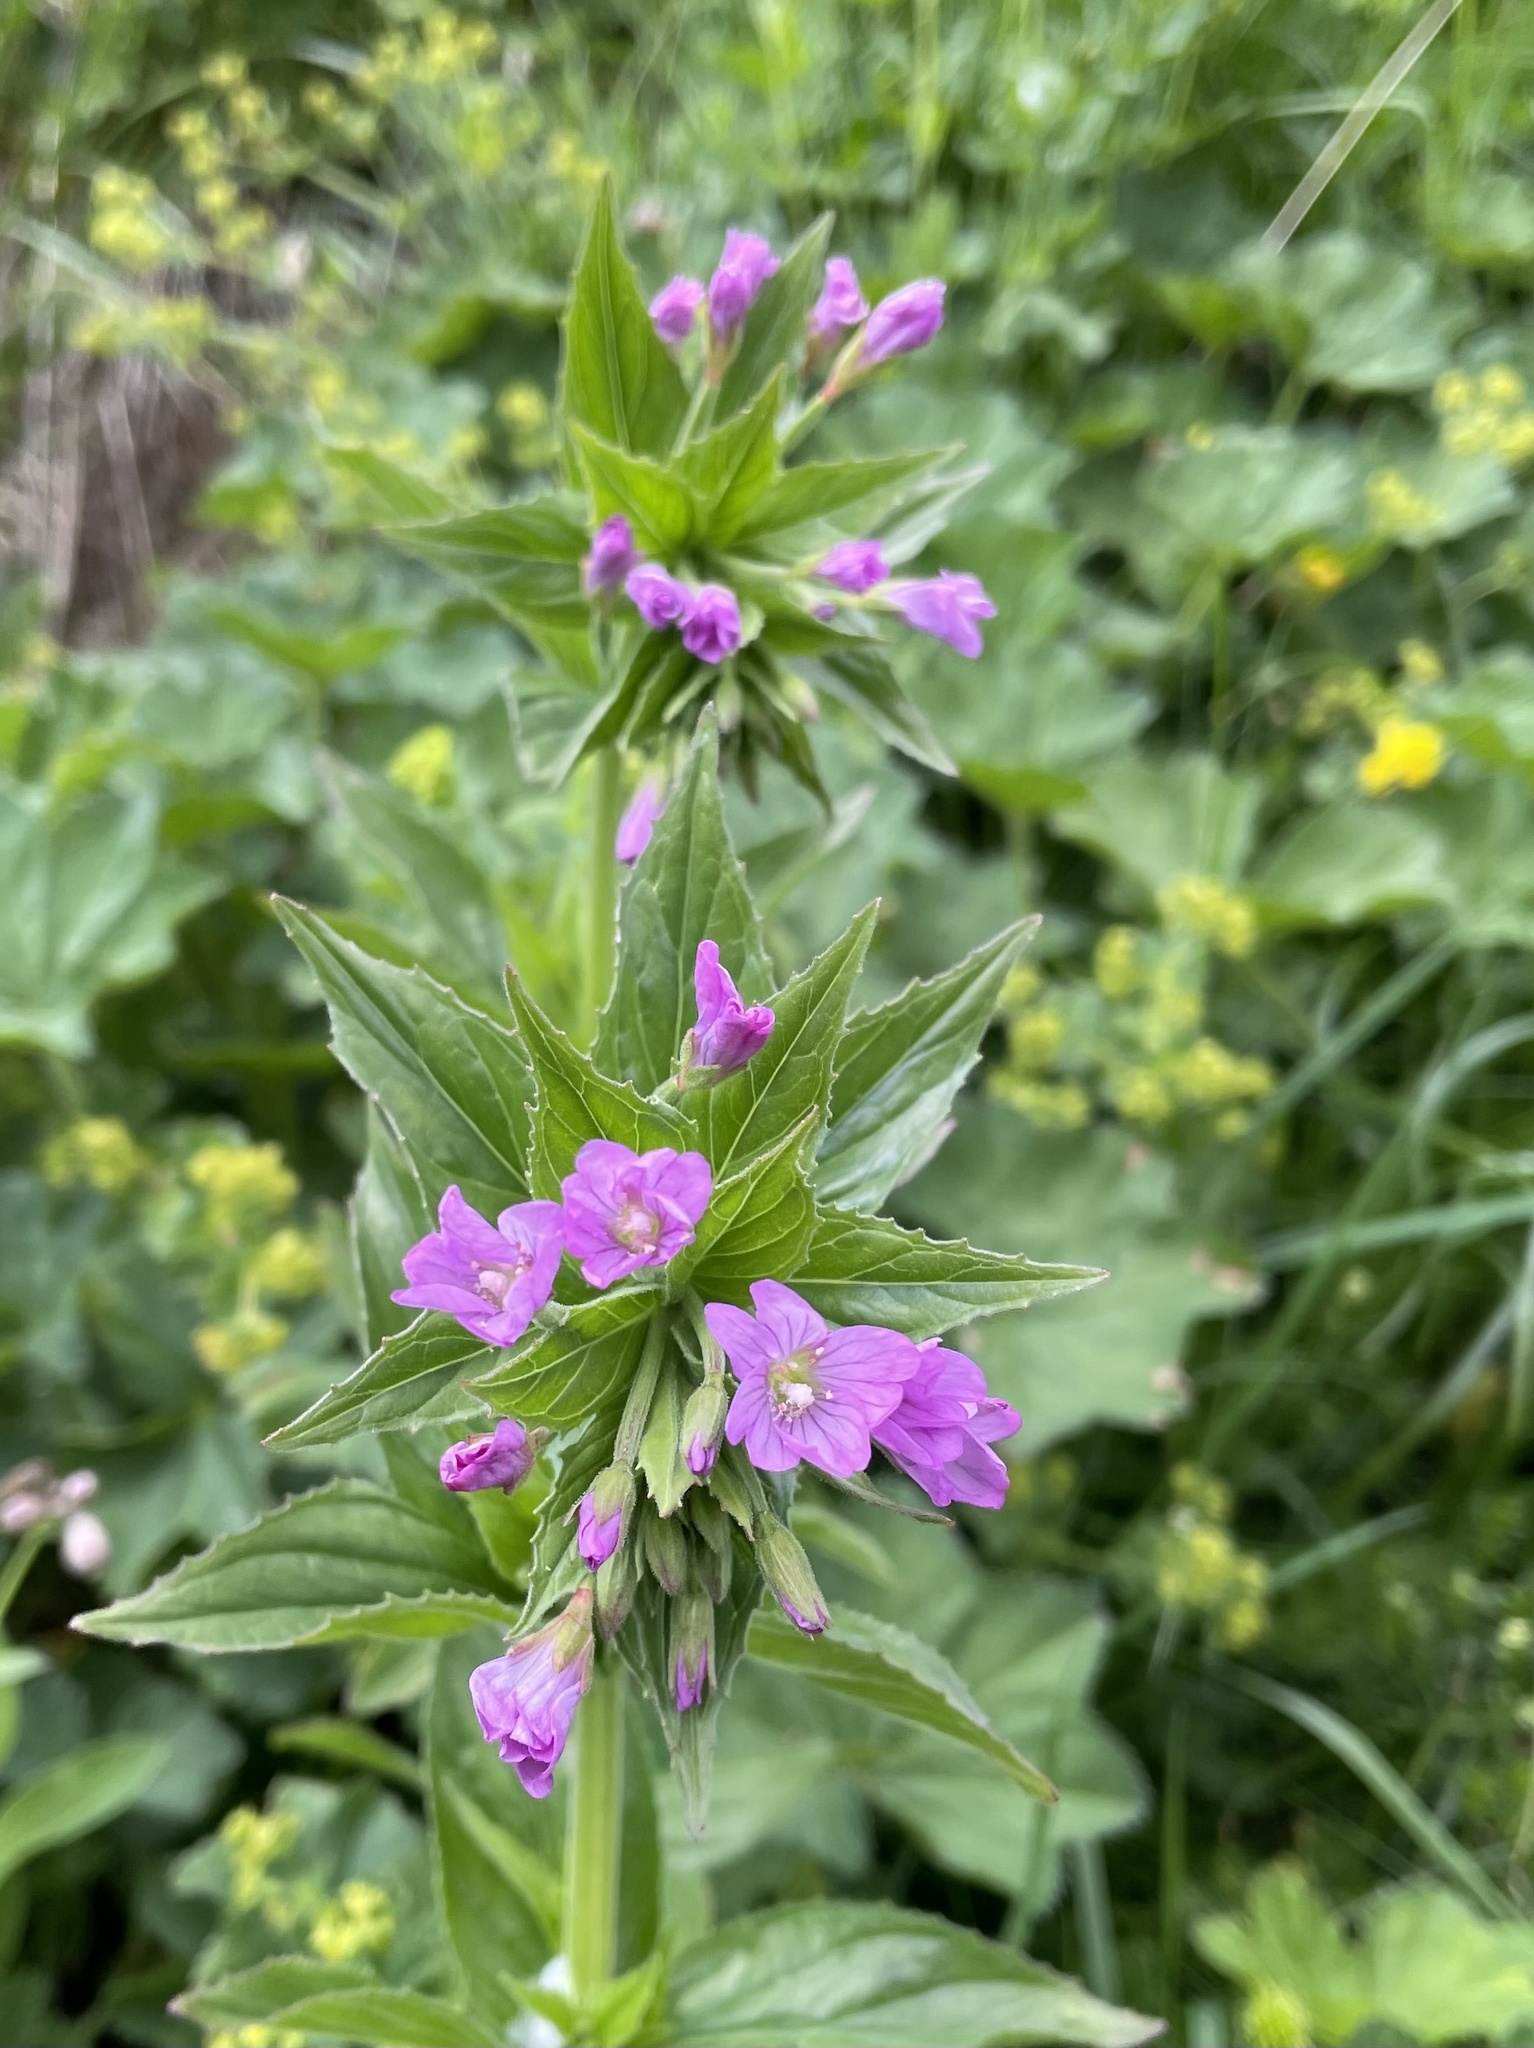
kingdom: Plantae
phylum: Tracheophyta
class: Magnoliopsida
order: Myrtales
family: Onagraceae
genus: Epilobium
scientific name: Epilobium alpestre
